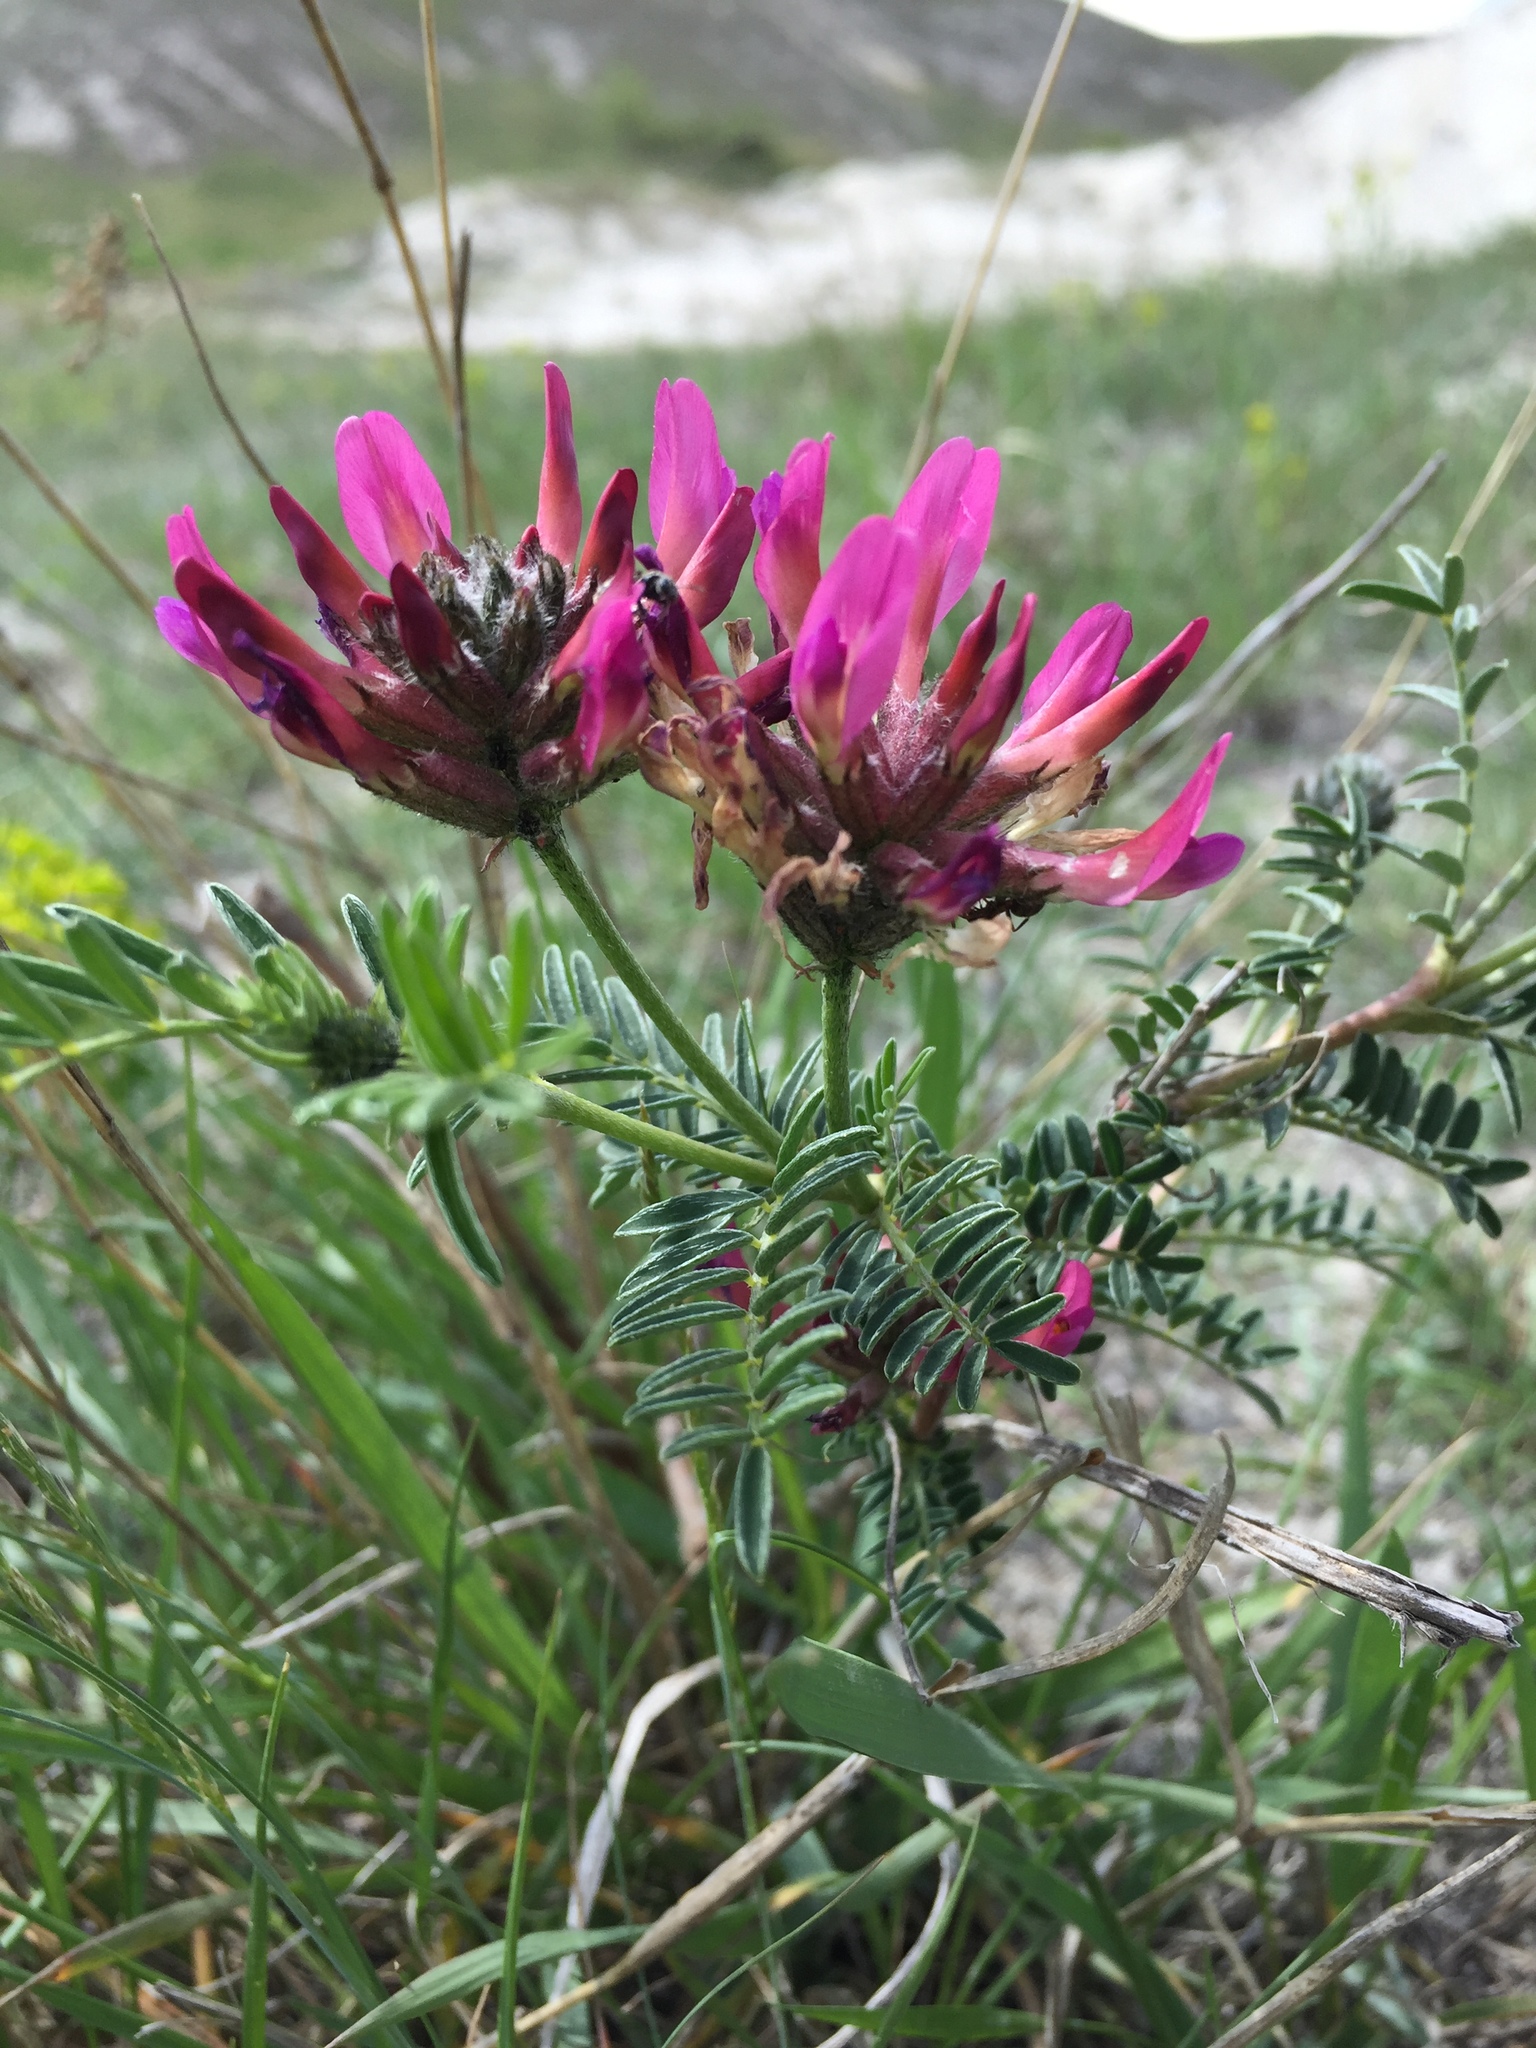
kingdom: Plantae
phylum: Tracheophyta
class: Magnoliopsida
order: Fabales
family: Fabaceae
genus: Astragalus
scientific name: Astragalus cornutus
